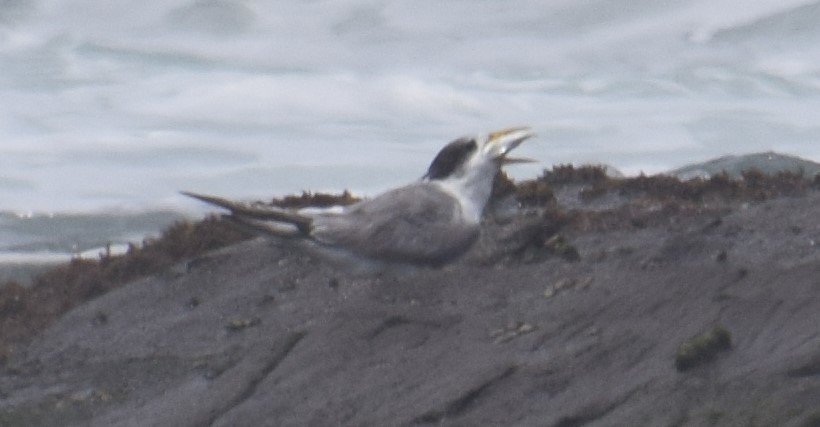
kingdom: Animalia
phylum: Chordata
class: Aves
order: Charadriiformes
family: Laridae
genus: Thalasseus
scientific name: Thalasseus bergii
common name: Greater crested tern
